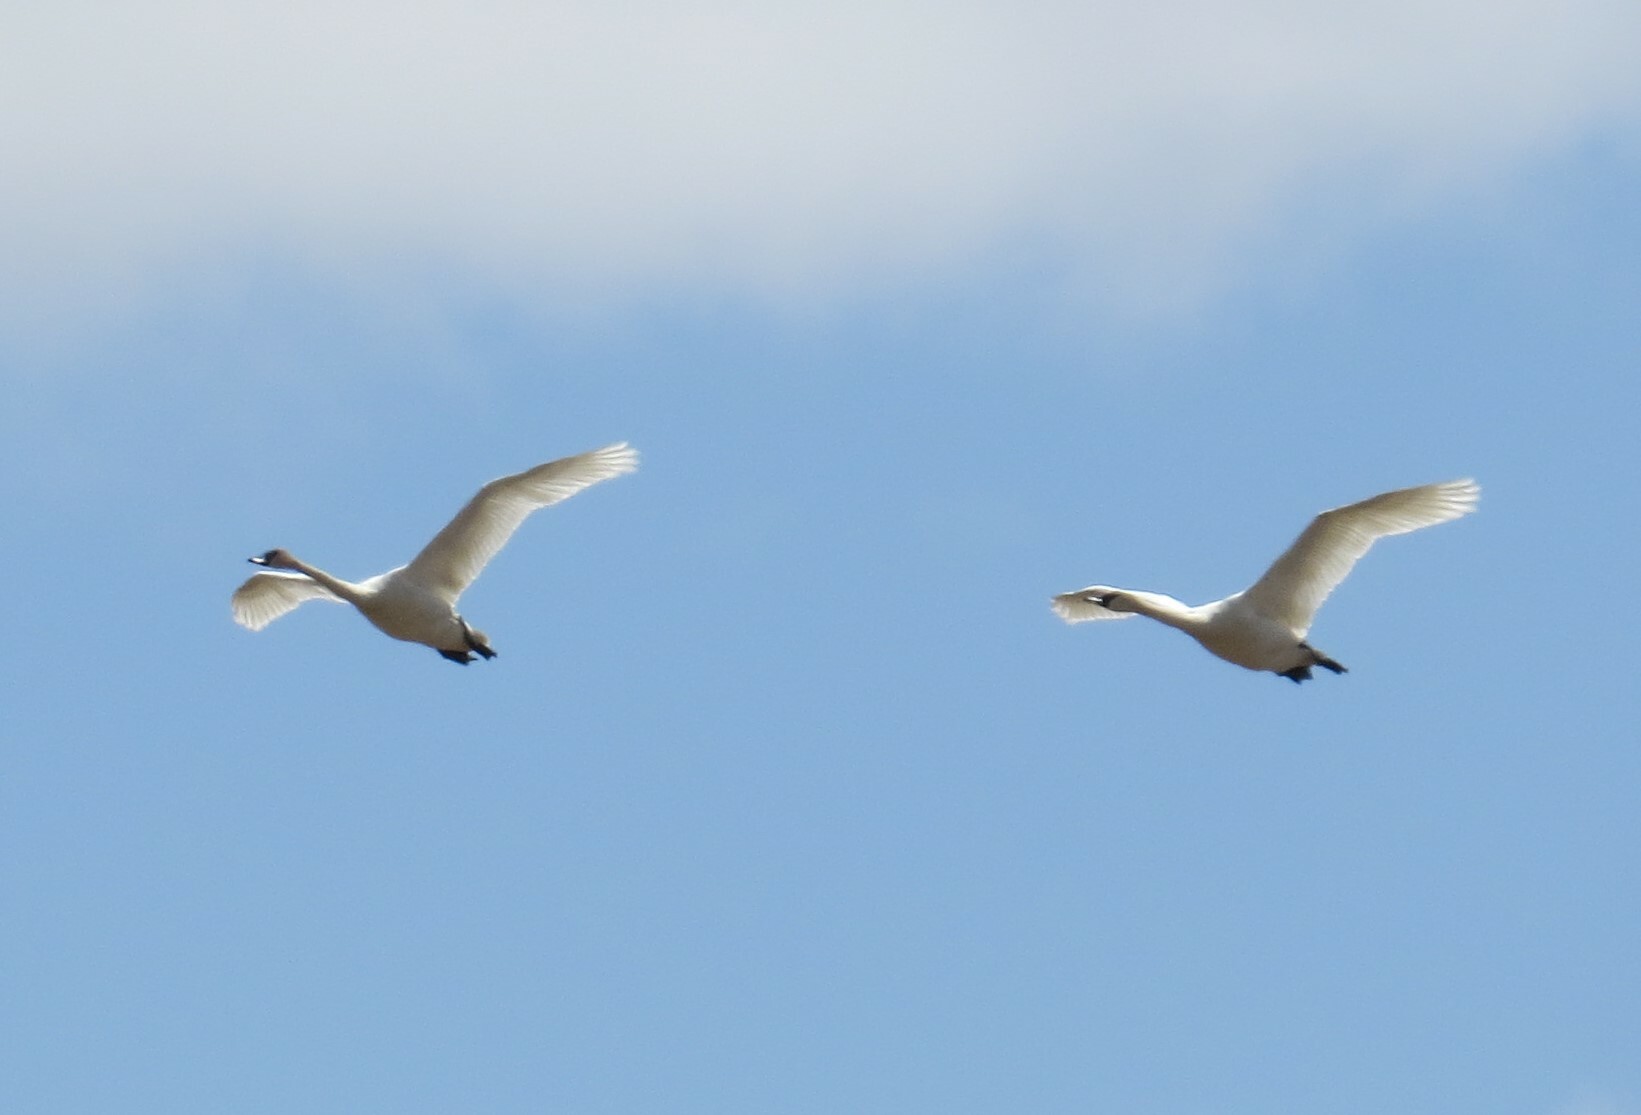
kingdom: Animalia
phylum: Chordata
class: Aves
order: Anseriformes
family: Anatidae
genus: Cygnus
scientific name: Cygnus buccinator
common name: Trumpeter swan
